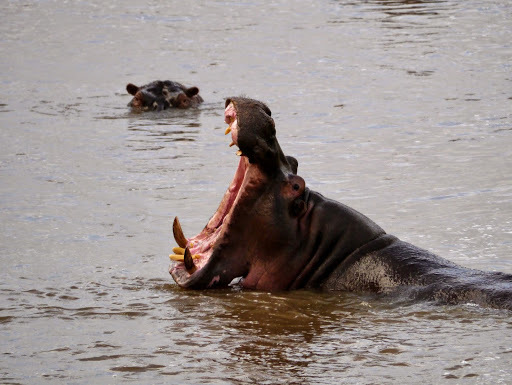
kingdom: Animalia
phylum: Chordata
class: Mammalia
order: Artiodactyla
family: Hippopotamidae
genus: Hippopotamus
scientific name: Hippopotamus amphibius
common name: Common hippopotamus
